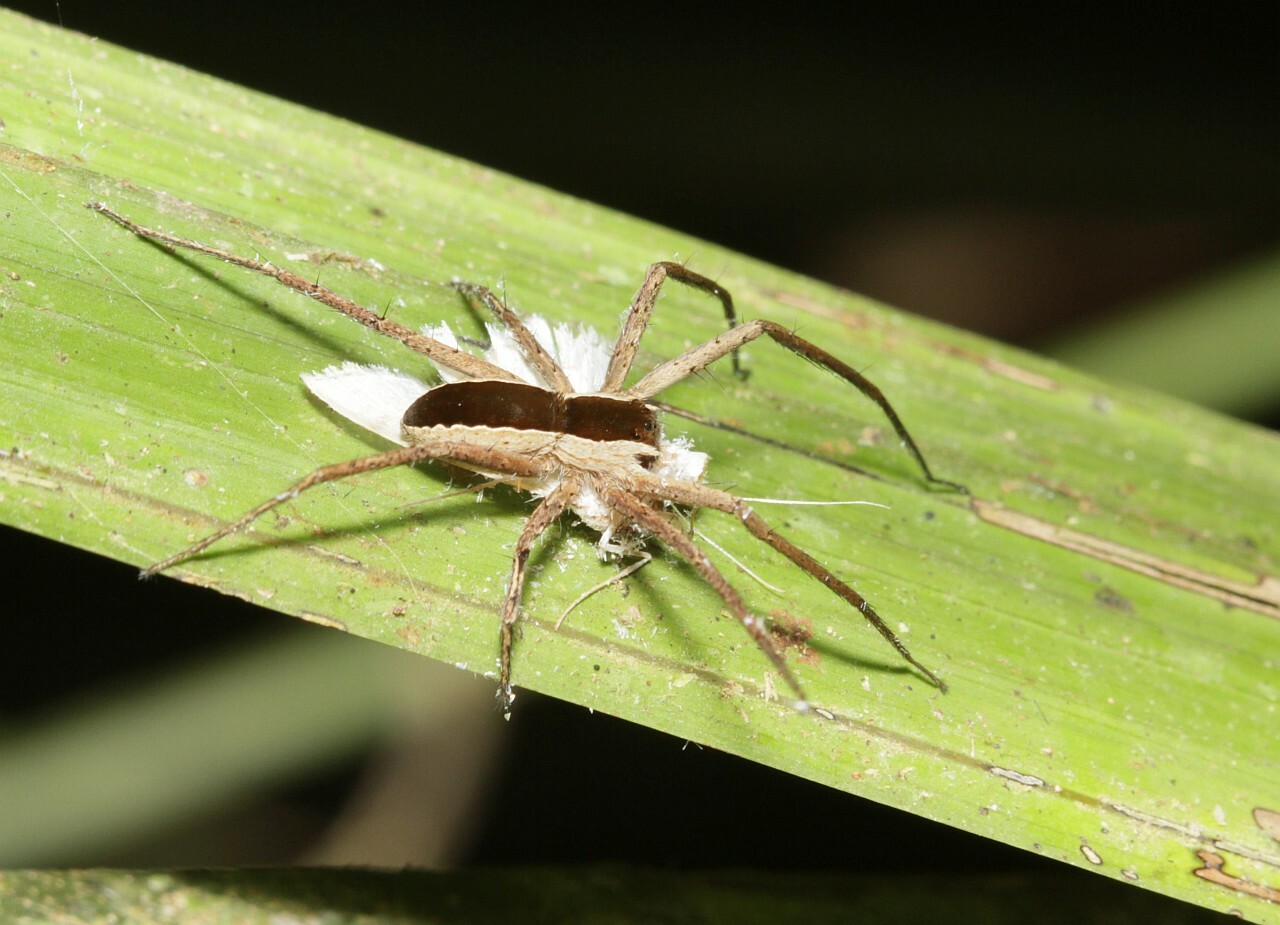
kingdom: Animalia
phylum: Arthropoda
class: Arachnida
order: Araneae
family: Trechaleidae
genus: Dossenus
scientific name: Dossenus marginatus
